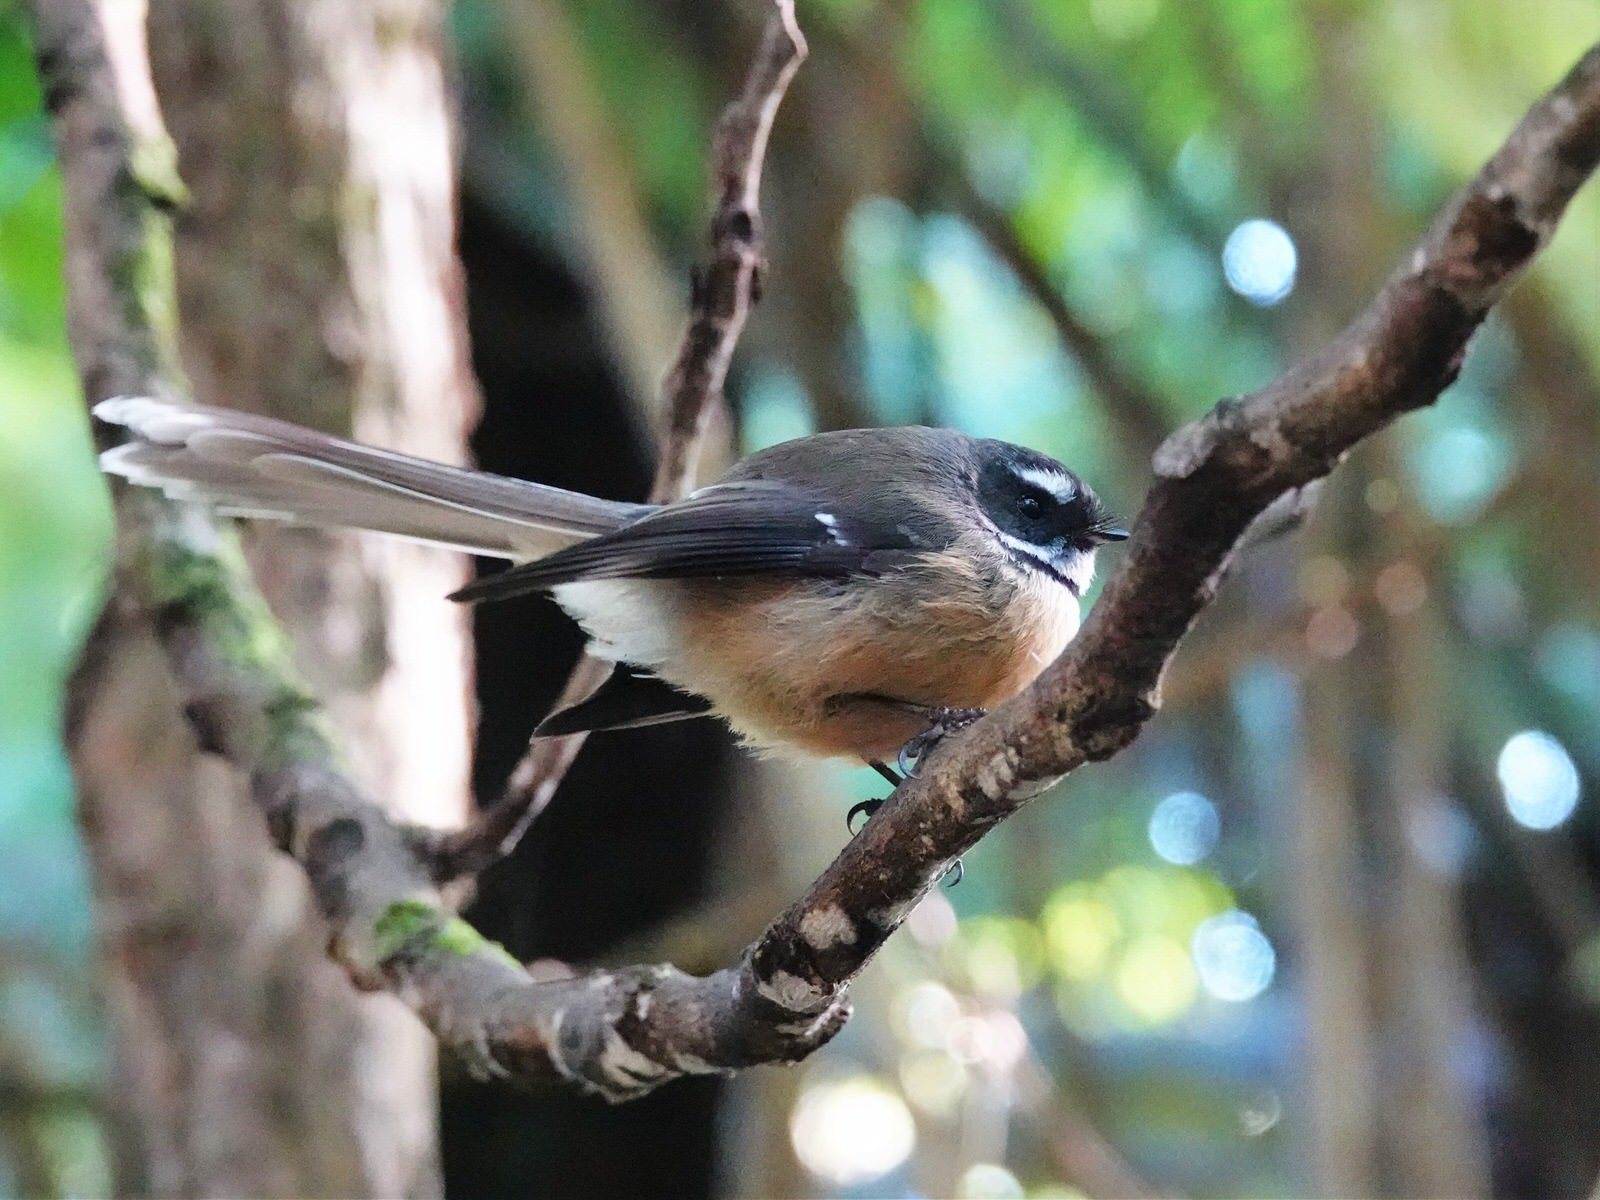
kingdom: Animalia
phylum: Chordata
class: Aves
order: Passeriformes
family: Rhipiduridae
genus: Rhipidura
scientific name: Rhipidura fuliginosa
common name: New zealand fantail
